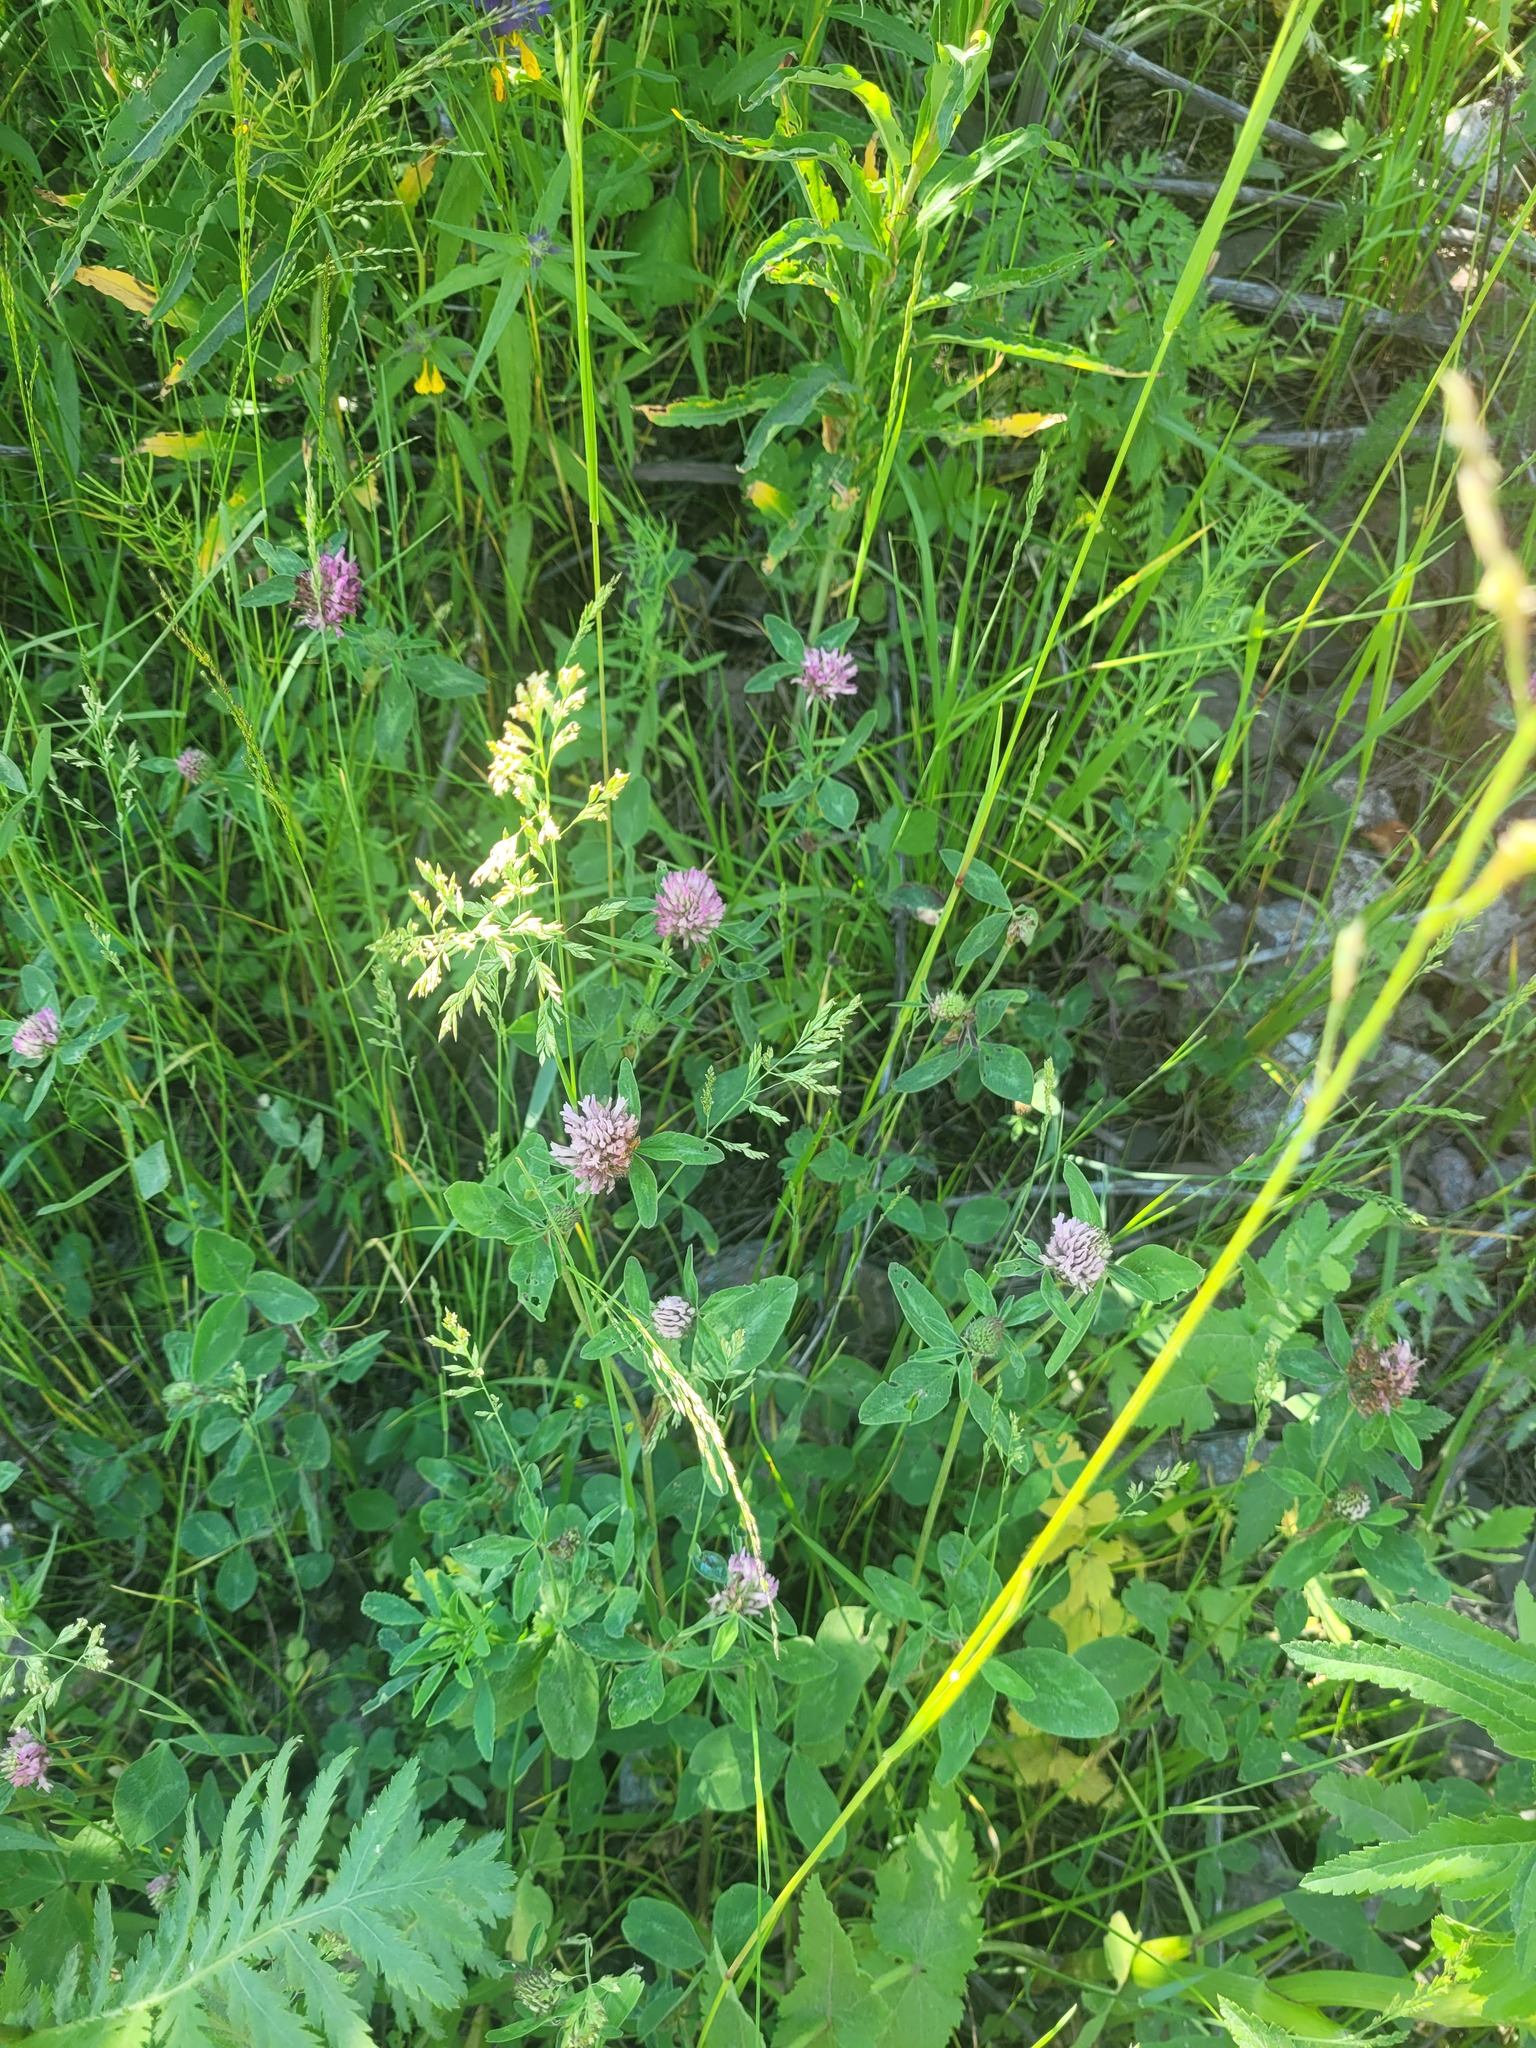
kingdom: Plantae
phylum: Tracheophyta
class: Magnoliopsida
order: Fabales
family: Fabaceae
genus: Trifolium
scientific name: Trifolium pratense
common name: Red clover
